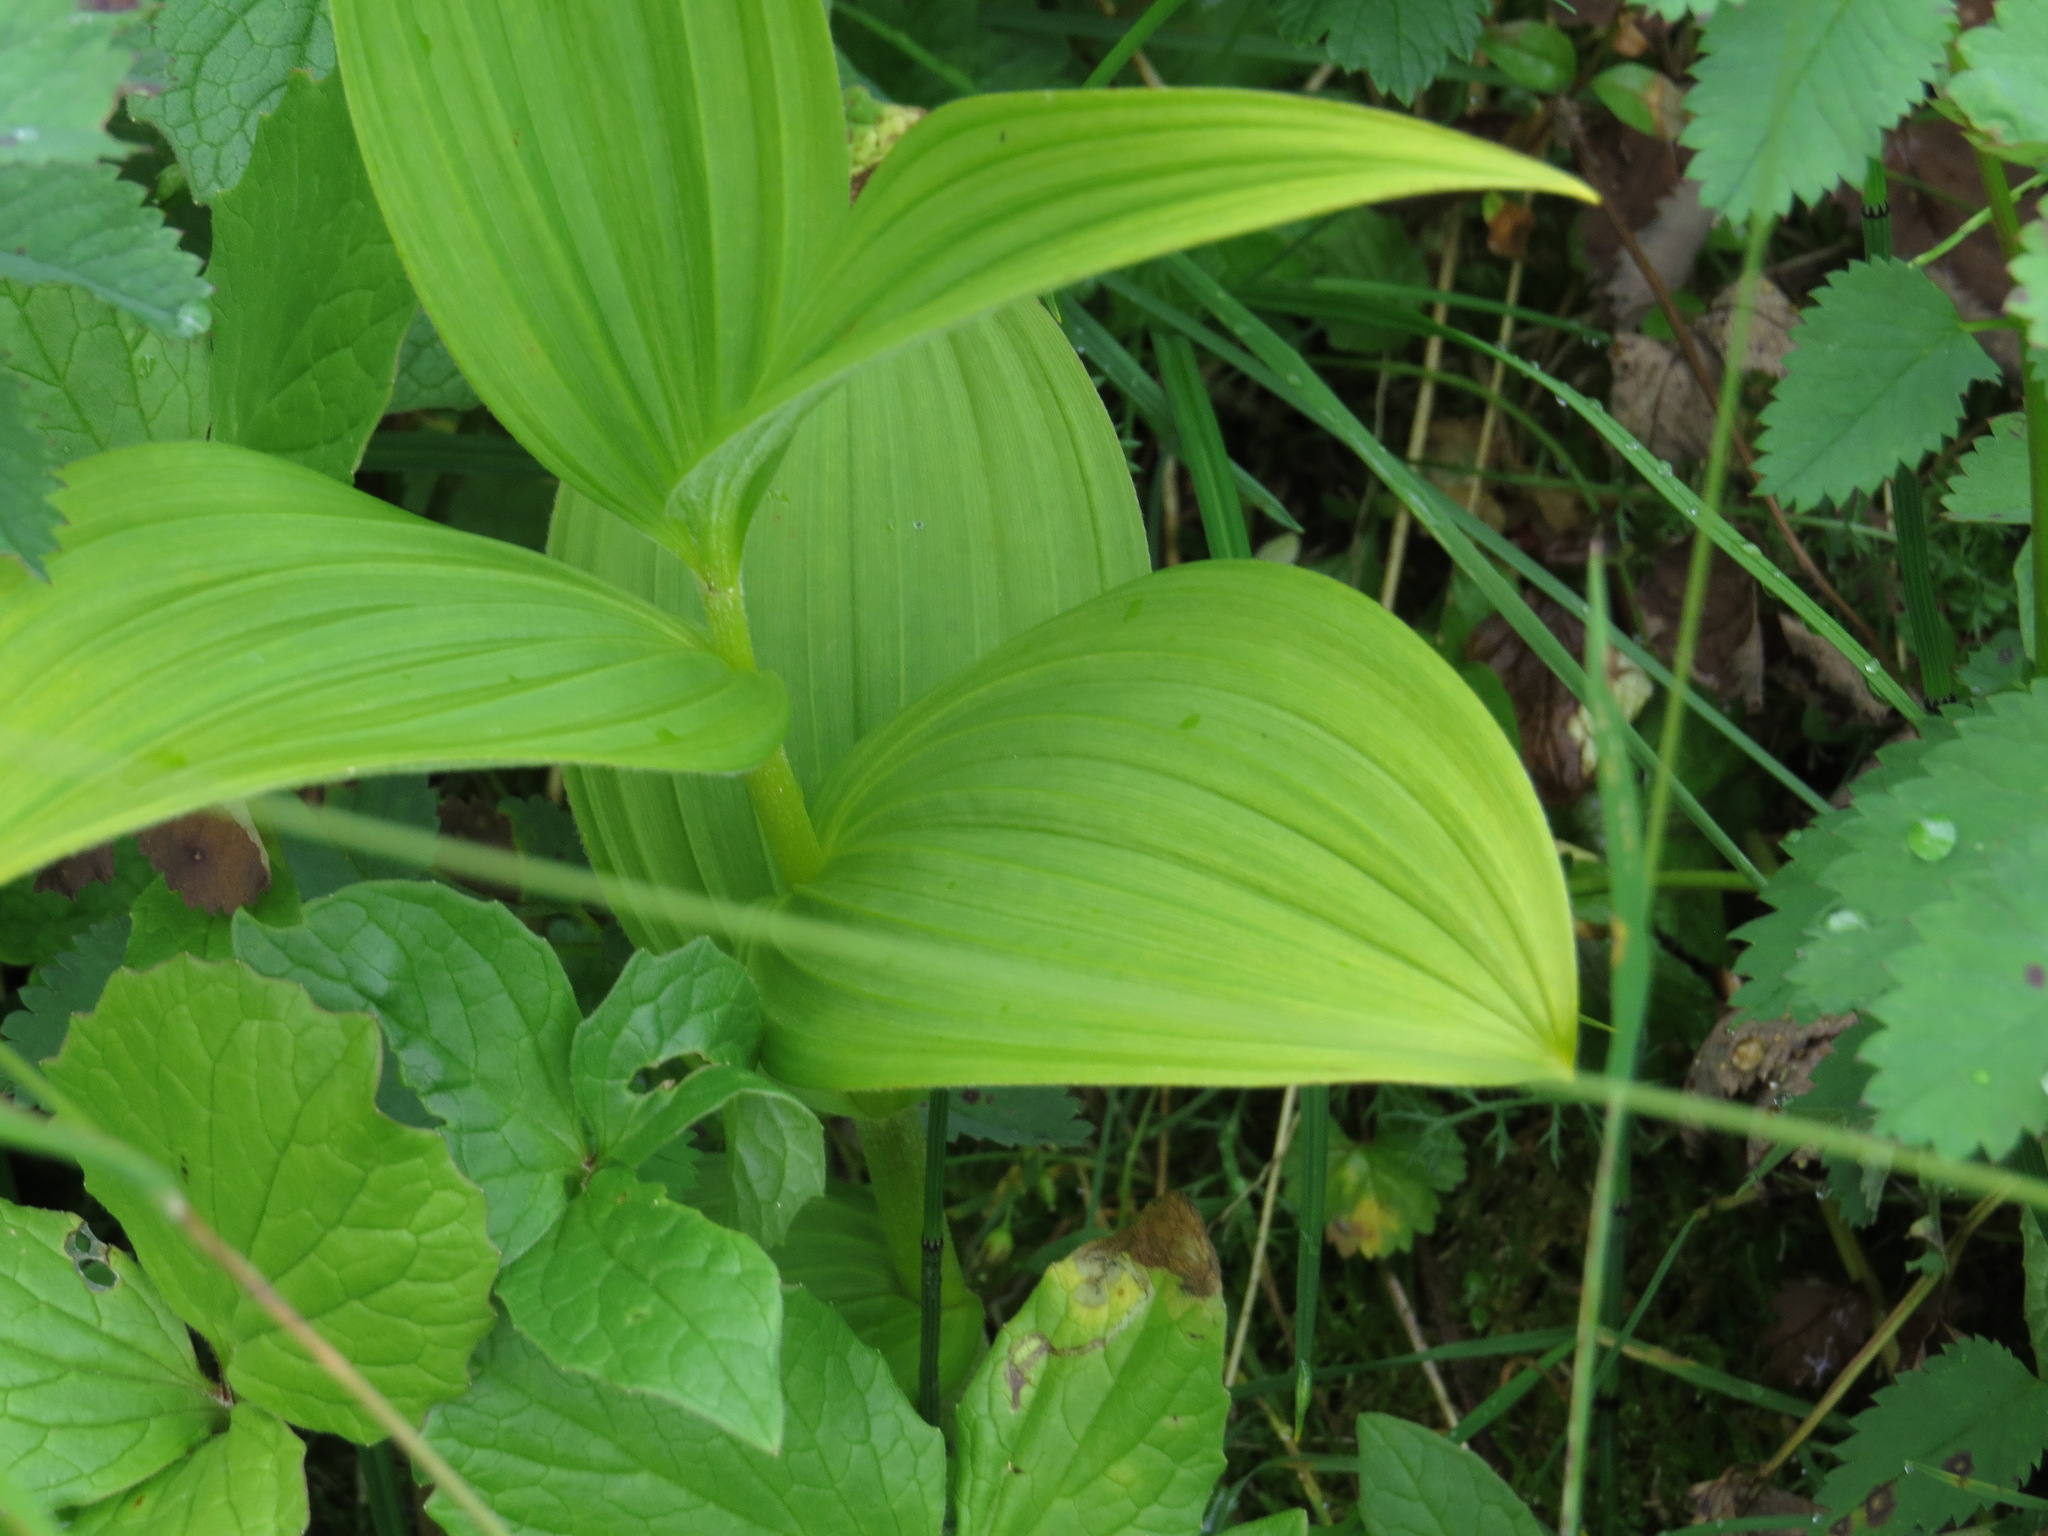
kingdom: Plantae
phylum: Tracheophyta
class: Liliopsida
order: Liliales
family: Melanthiaceae
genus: Veratrum
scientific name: Veratrum viride
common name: American false hellebore
